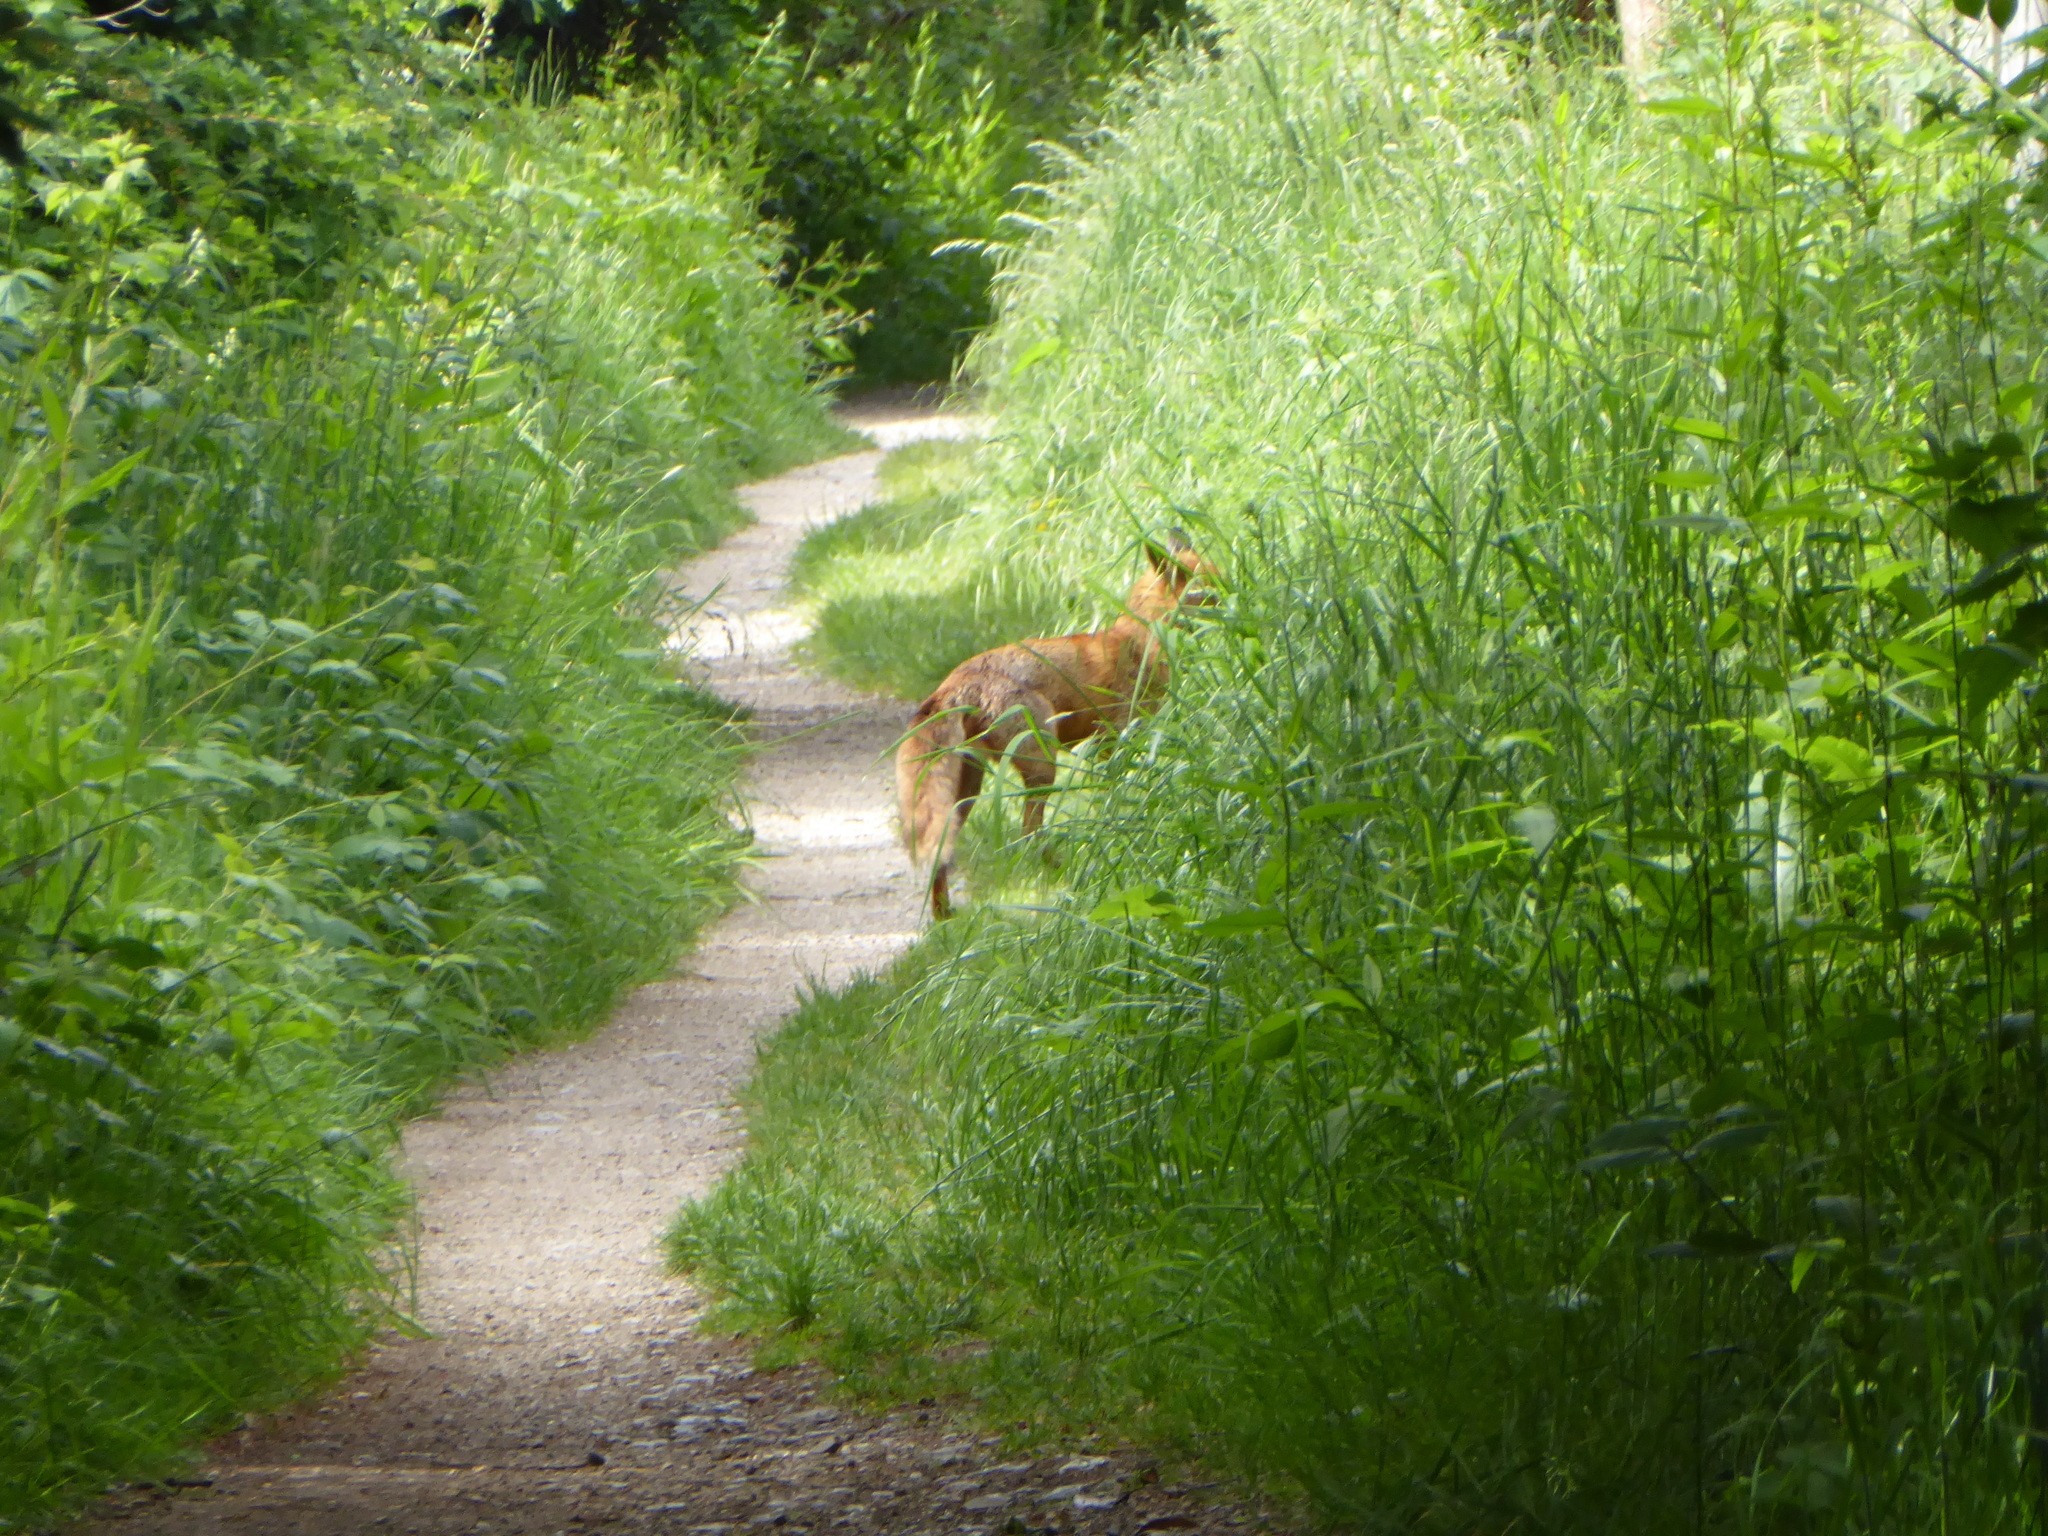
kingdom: Animalia
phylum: Chordata
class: Mammalia
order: Carnivora
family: Canidae
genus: Vulpes
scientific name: Vulpes vulpes
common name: Red fox
